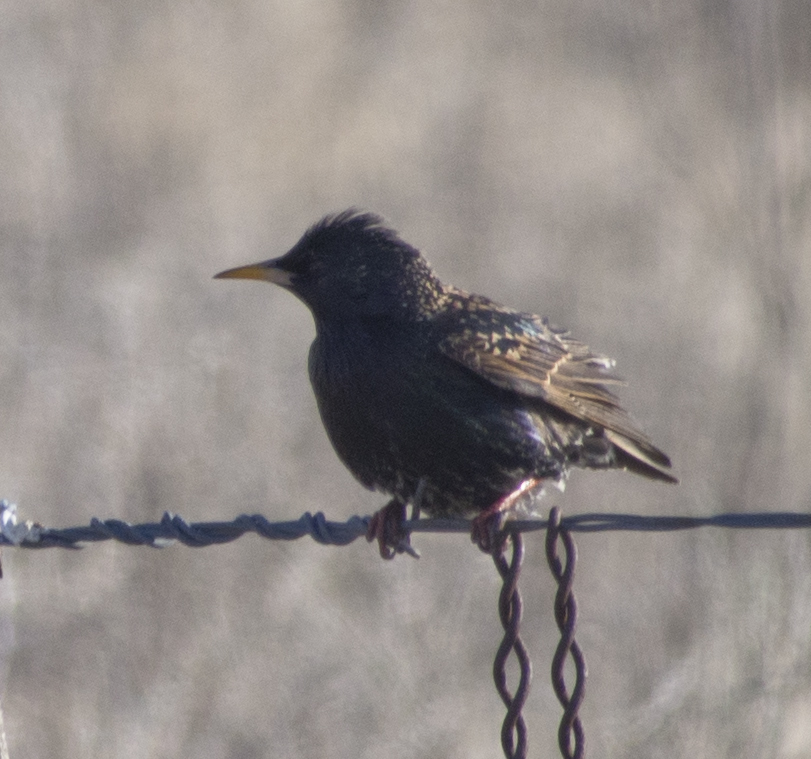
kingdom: Animalia
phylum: Chordata
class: Aves
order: Passeriformes
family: Sturnidae
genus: Sturnus
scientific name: Sturnus vulgaris
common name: Common starling
